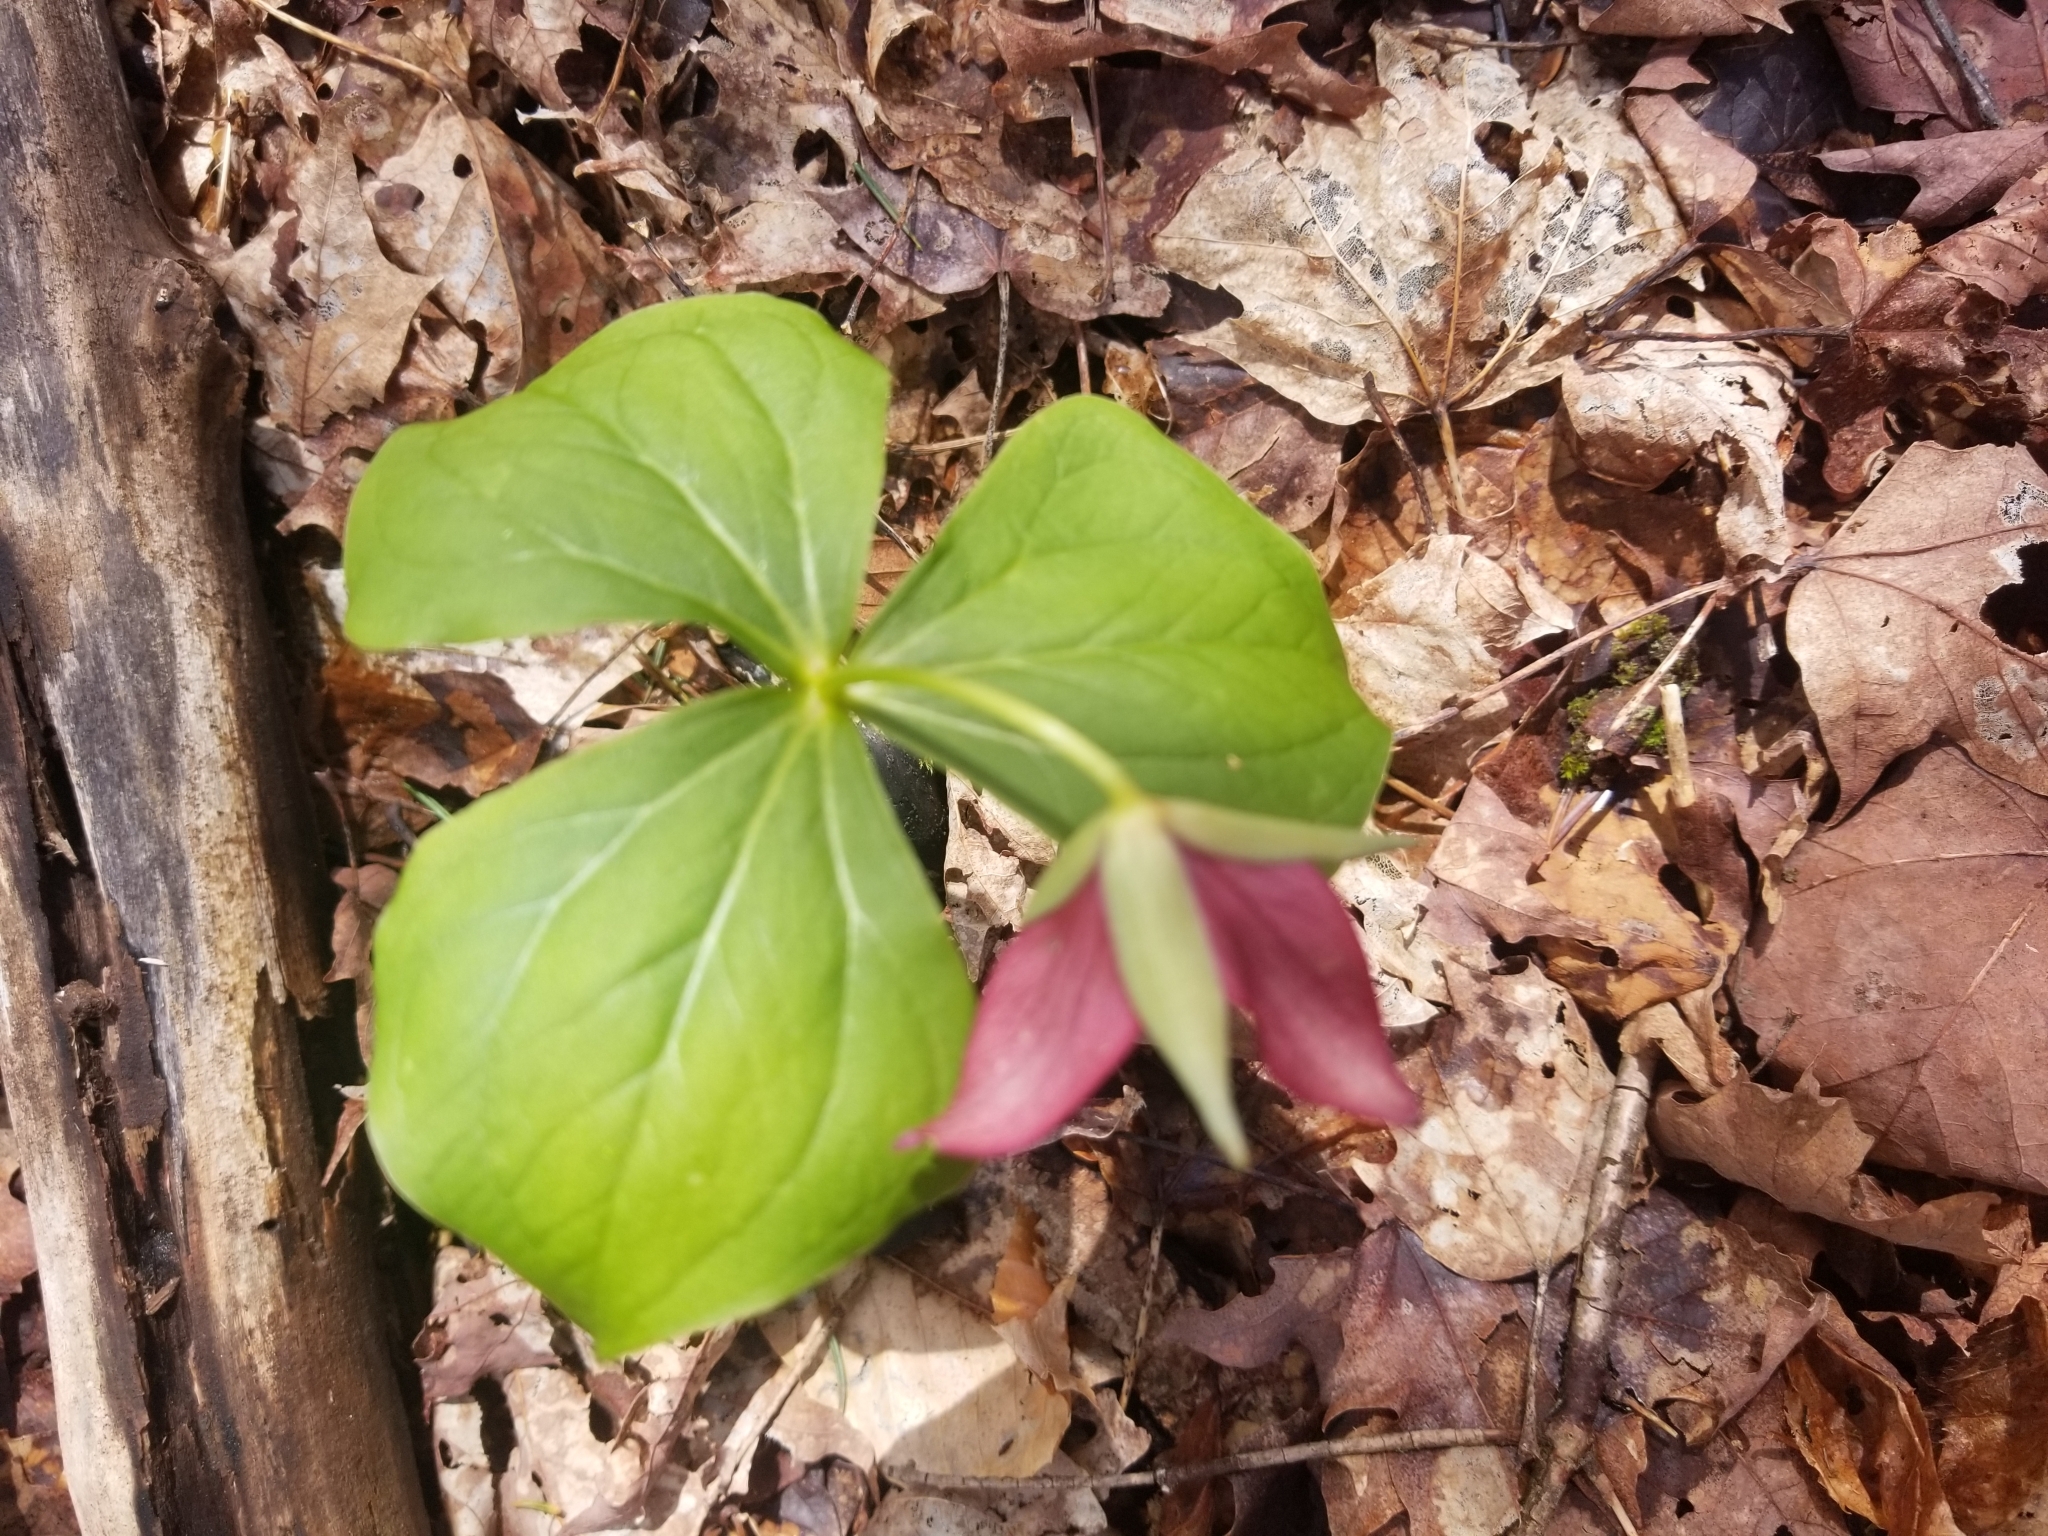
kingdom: Plantae
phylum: Tracheophyta
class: Liliopsida
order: Liliales
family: Melanthiaceae
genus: Trillium
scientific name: Trillium erectum
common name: Purple trillium
